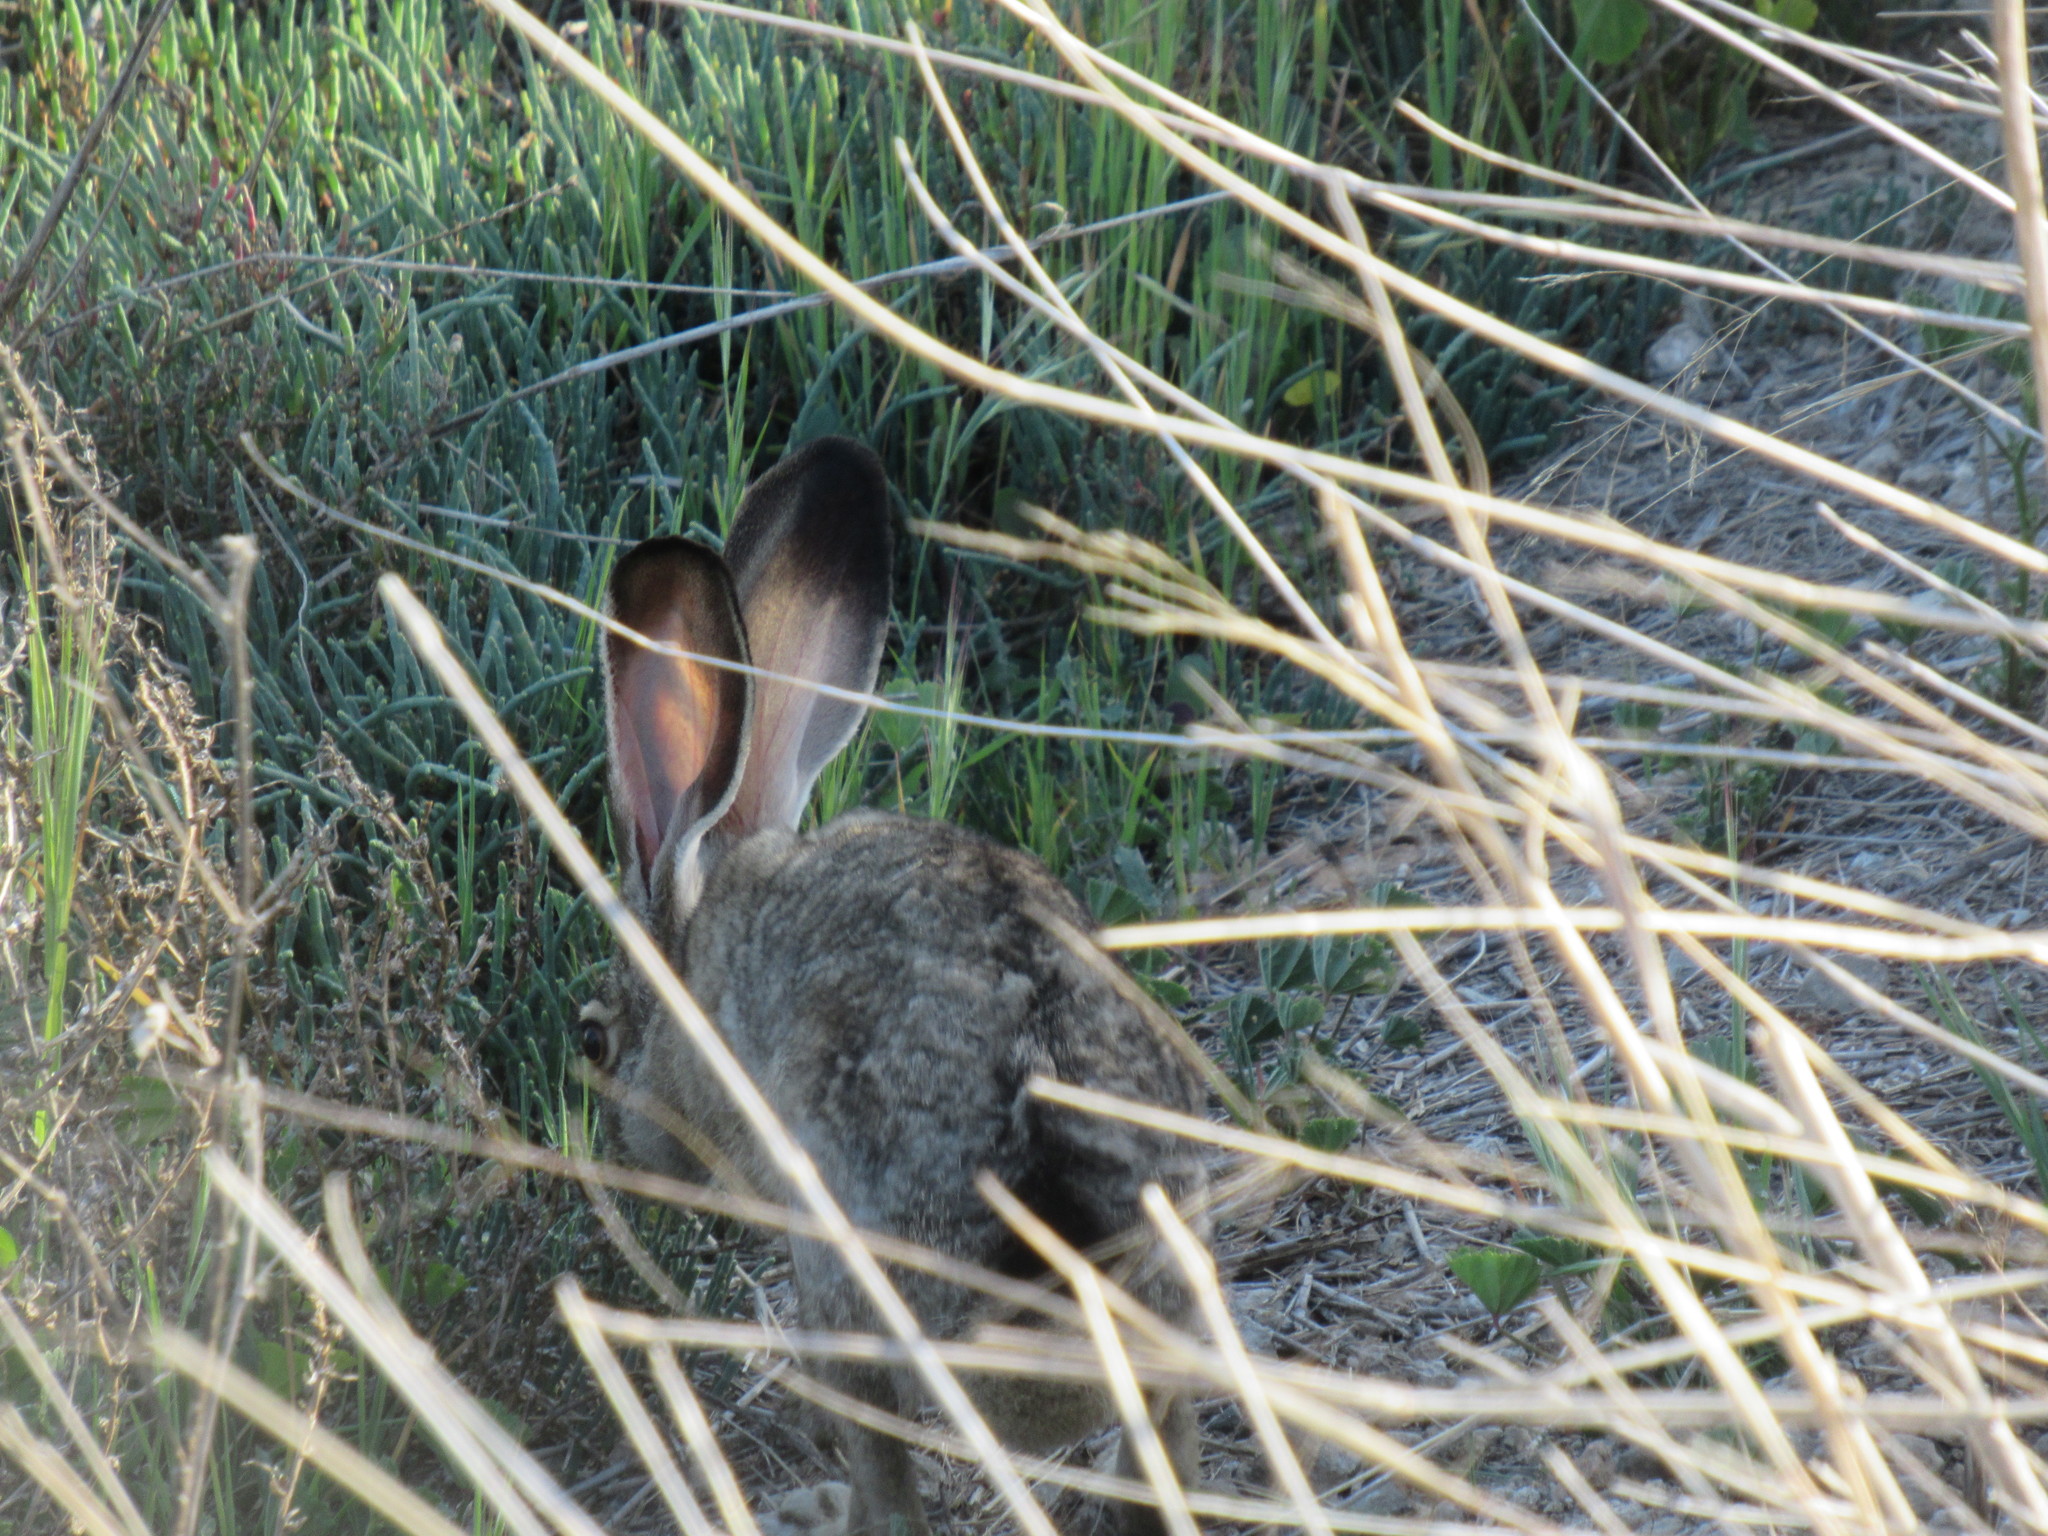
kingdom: Animalia
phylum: Chordata
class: Mammalia
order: Lagomorpha
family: Leporidae
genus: Lepus
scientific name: Lepus californicus
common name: Black-tailed jackrabbit
